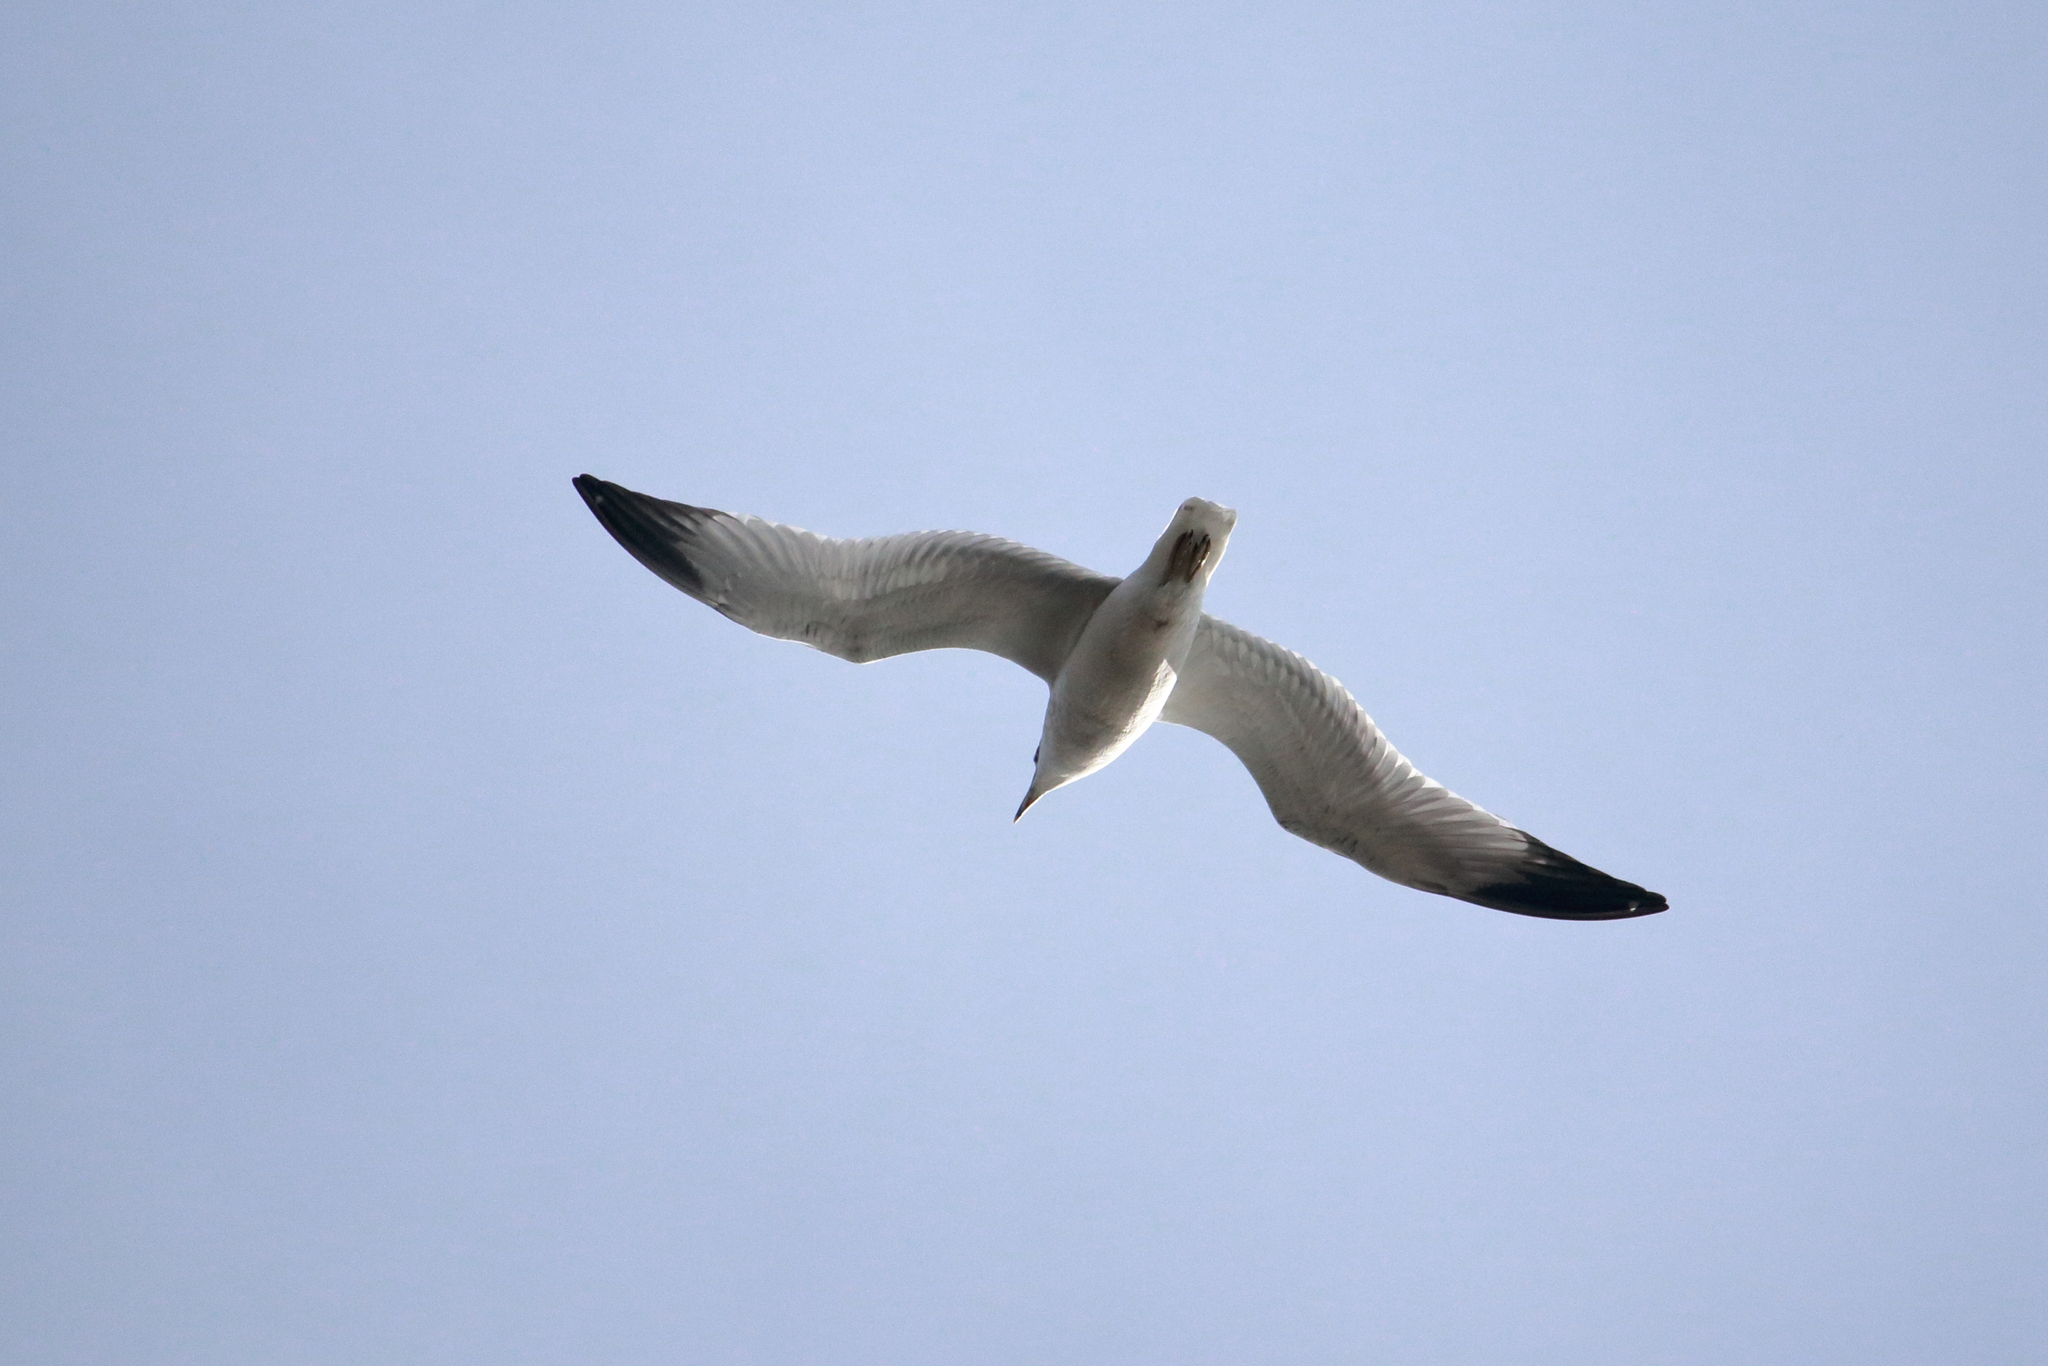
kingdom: Animalia
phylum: Chordata
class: Aves
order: Charadriiformes
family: Laridae
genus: Leucophaeus
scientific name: Leucophaeus atricilla
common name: Laughing gull
